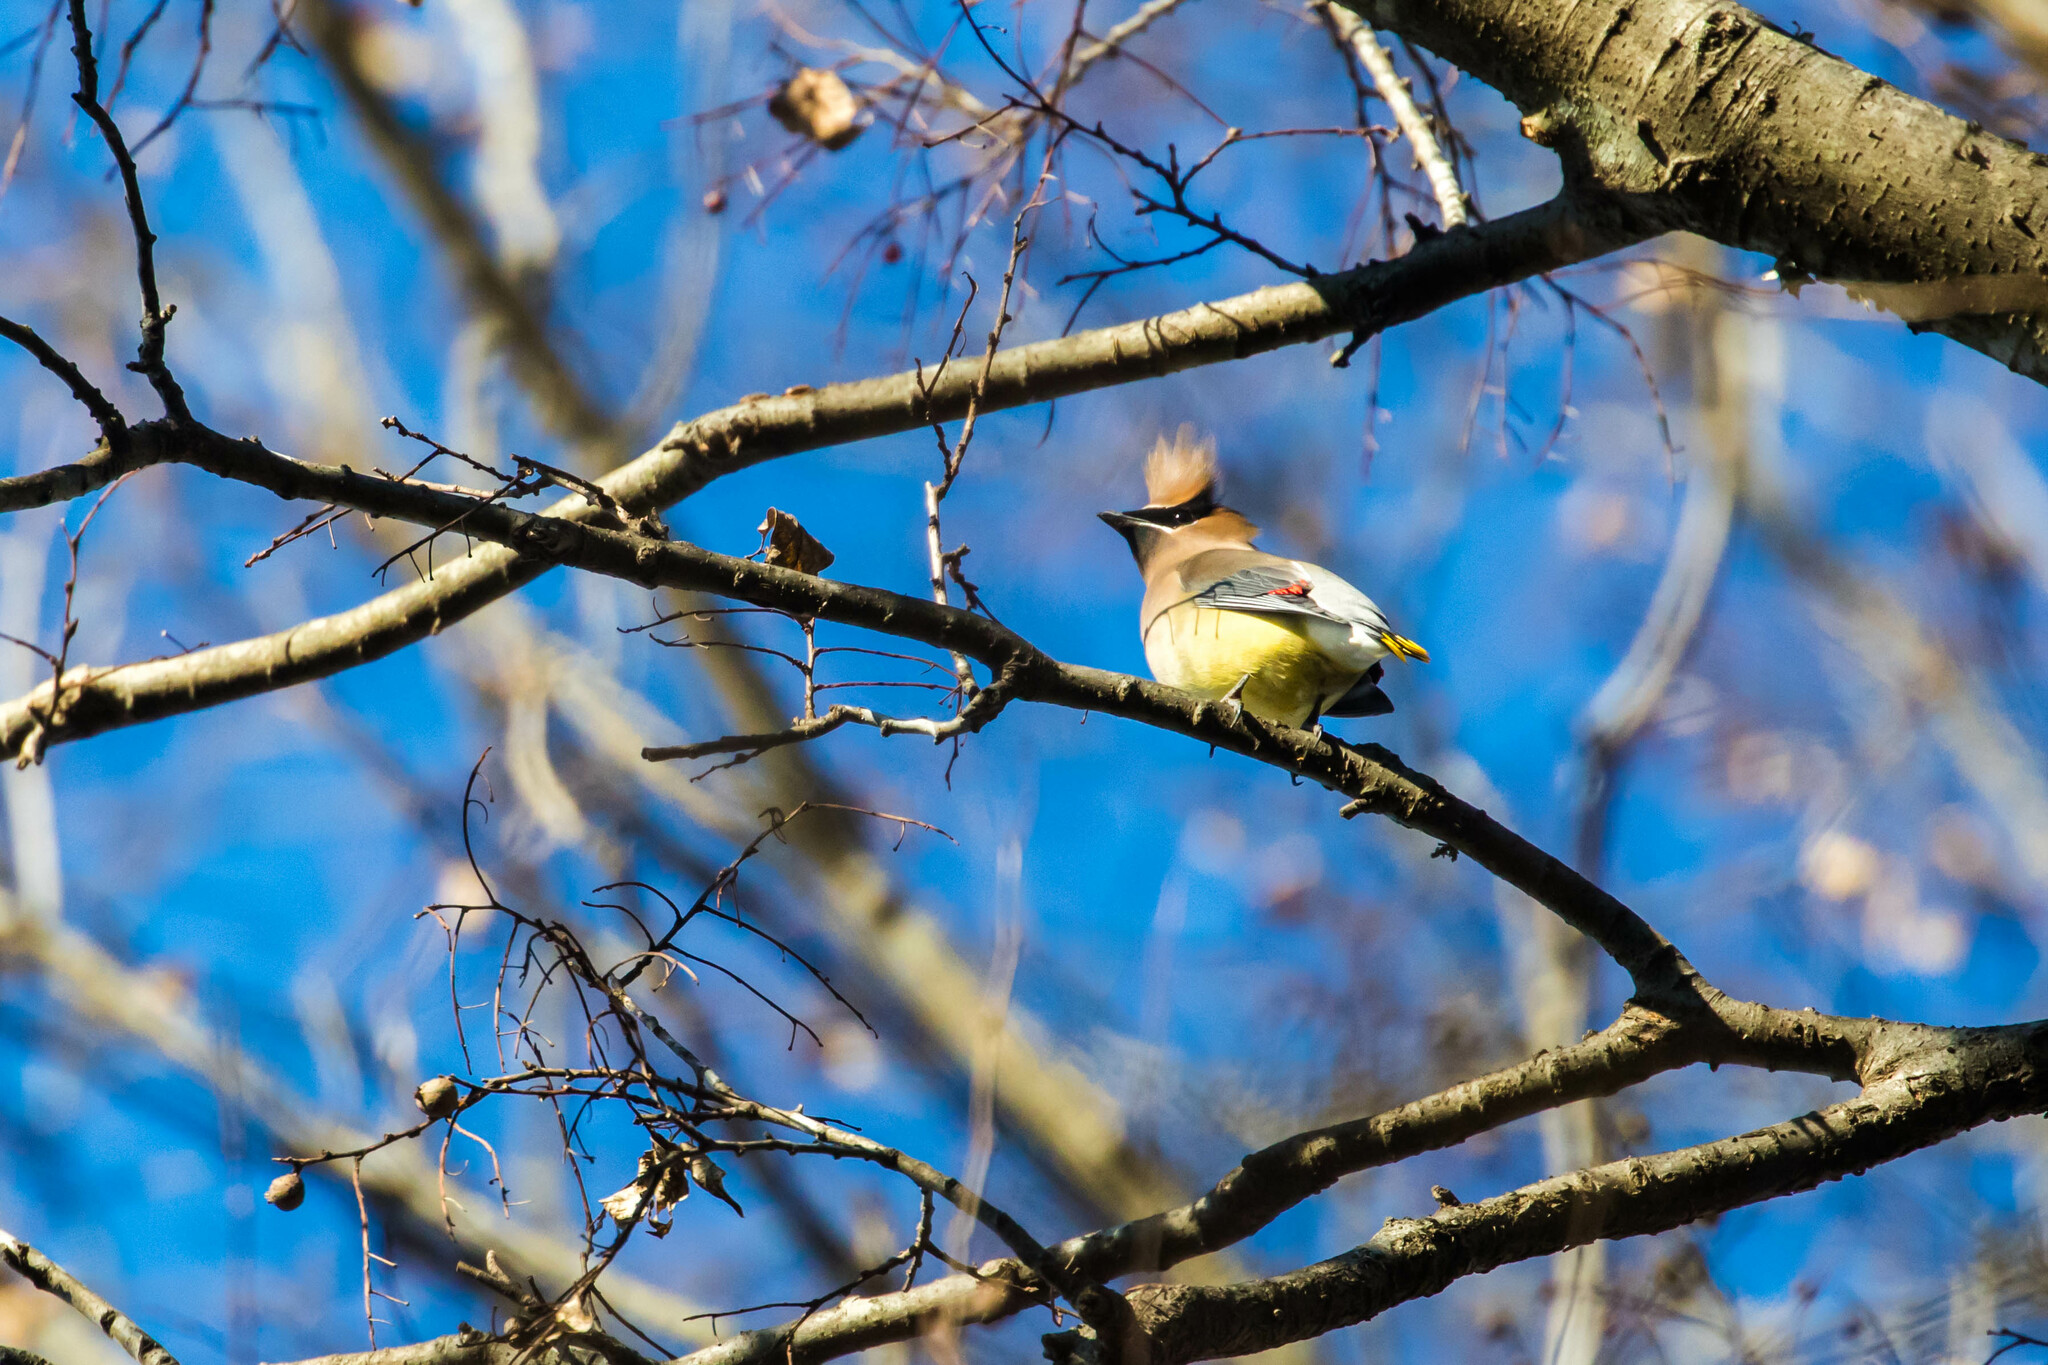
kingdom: Animalia
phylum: Chordata
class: Aves
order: Passeriformes
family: Bombycillidae
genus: Bombycilla
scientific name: Bombycilla cedrorum
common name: Cedar waxwing
